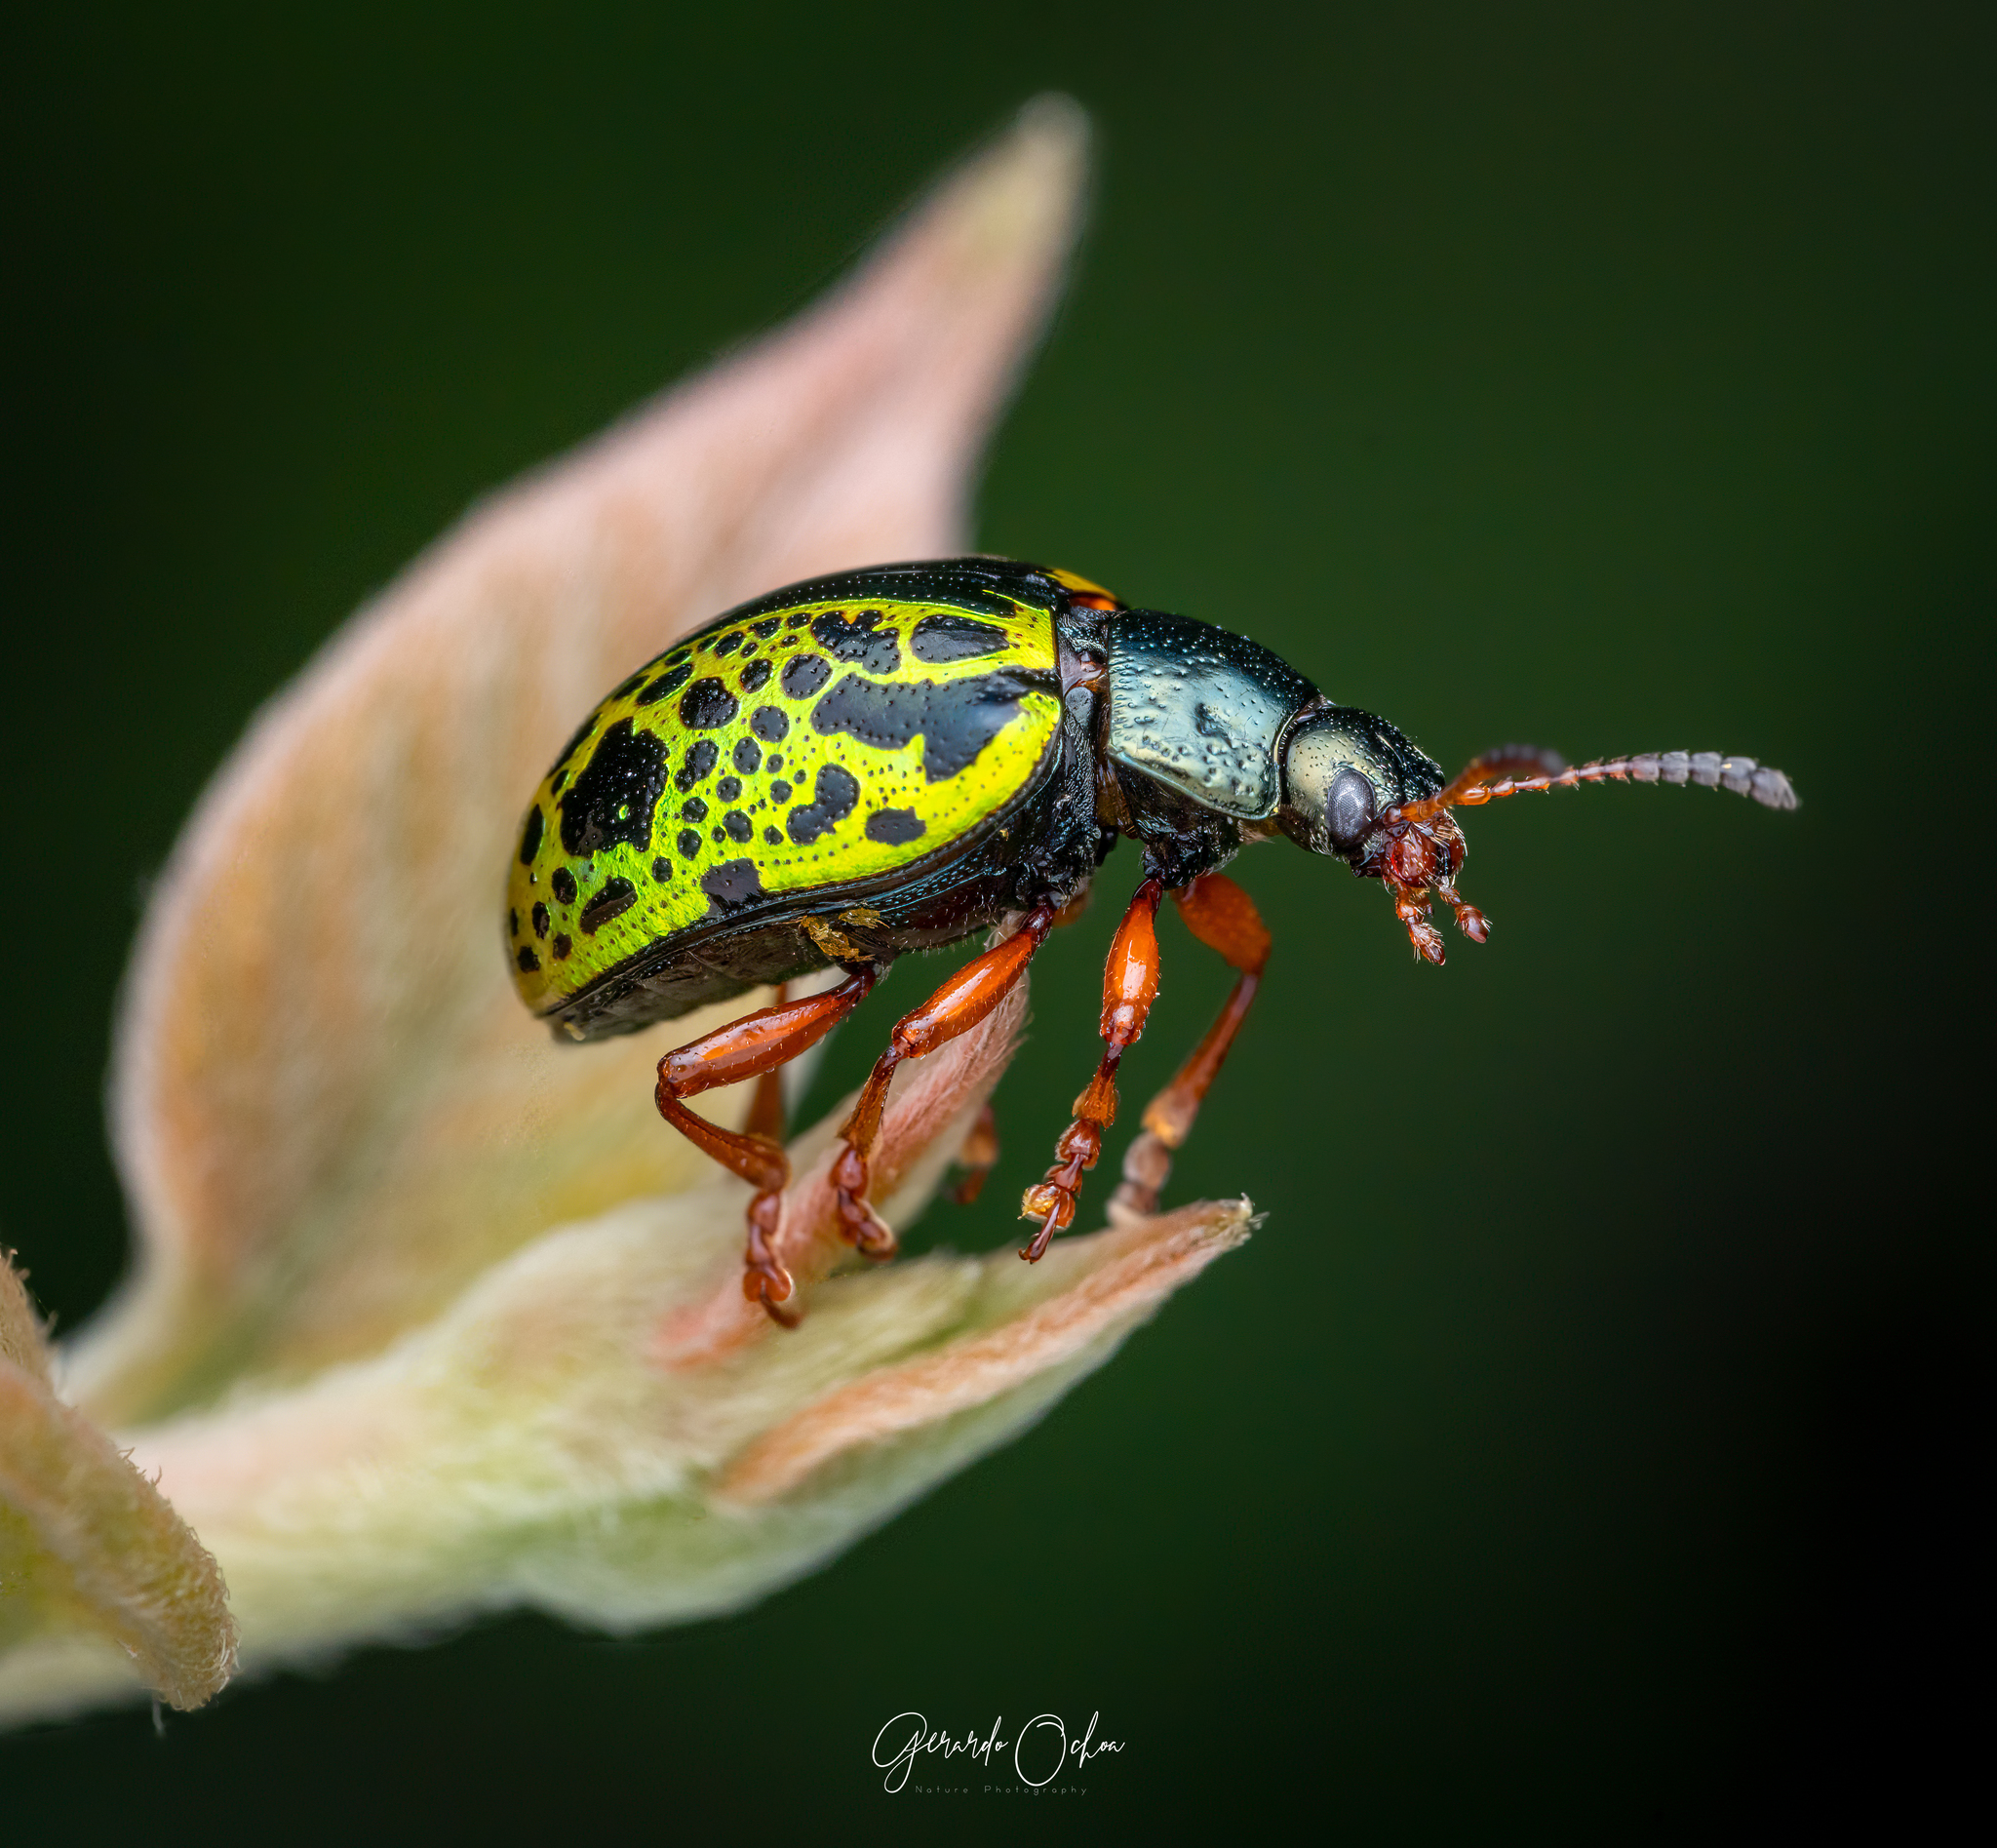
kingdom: Animalia
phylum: Arthropoda
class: Insecta
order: Coleoptera
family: Chrysomelidae
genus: Calligrapha
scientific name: Calligrapha felina
